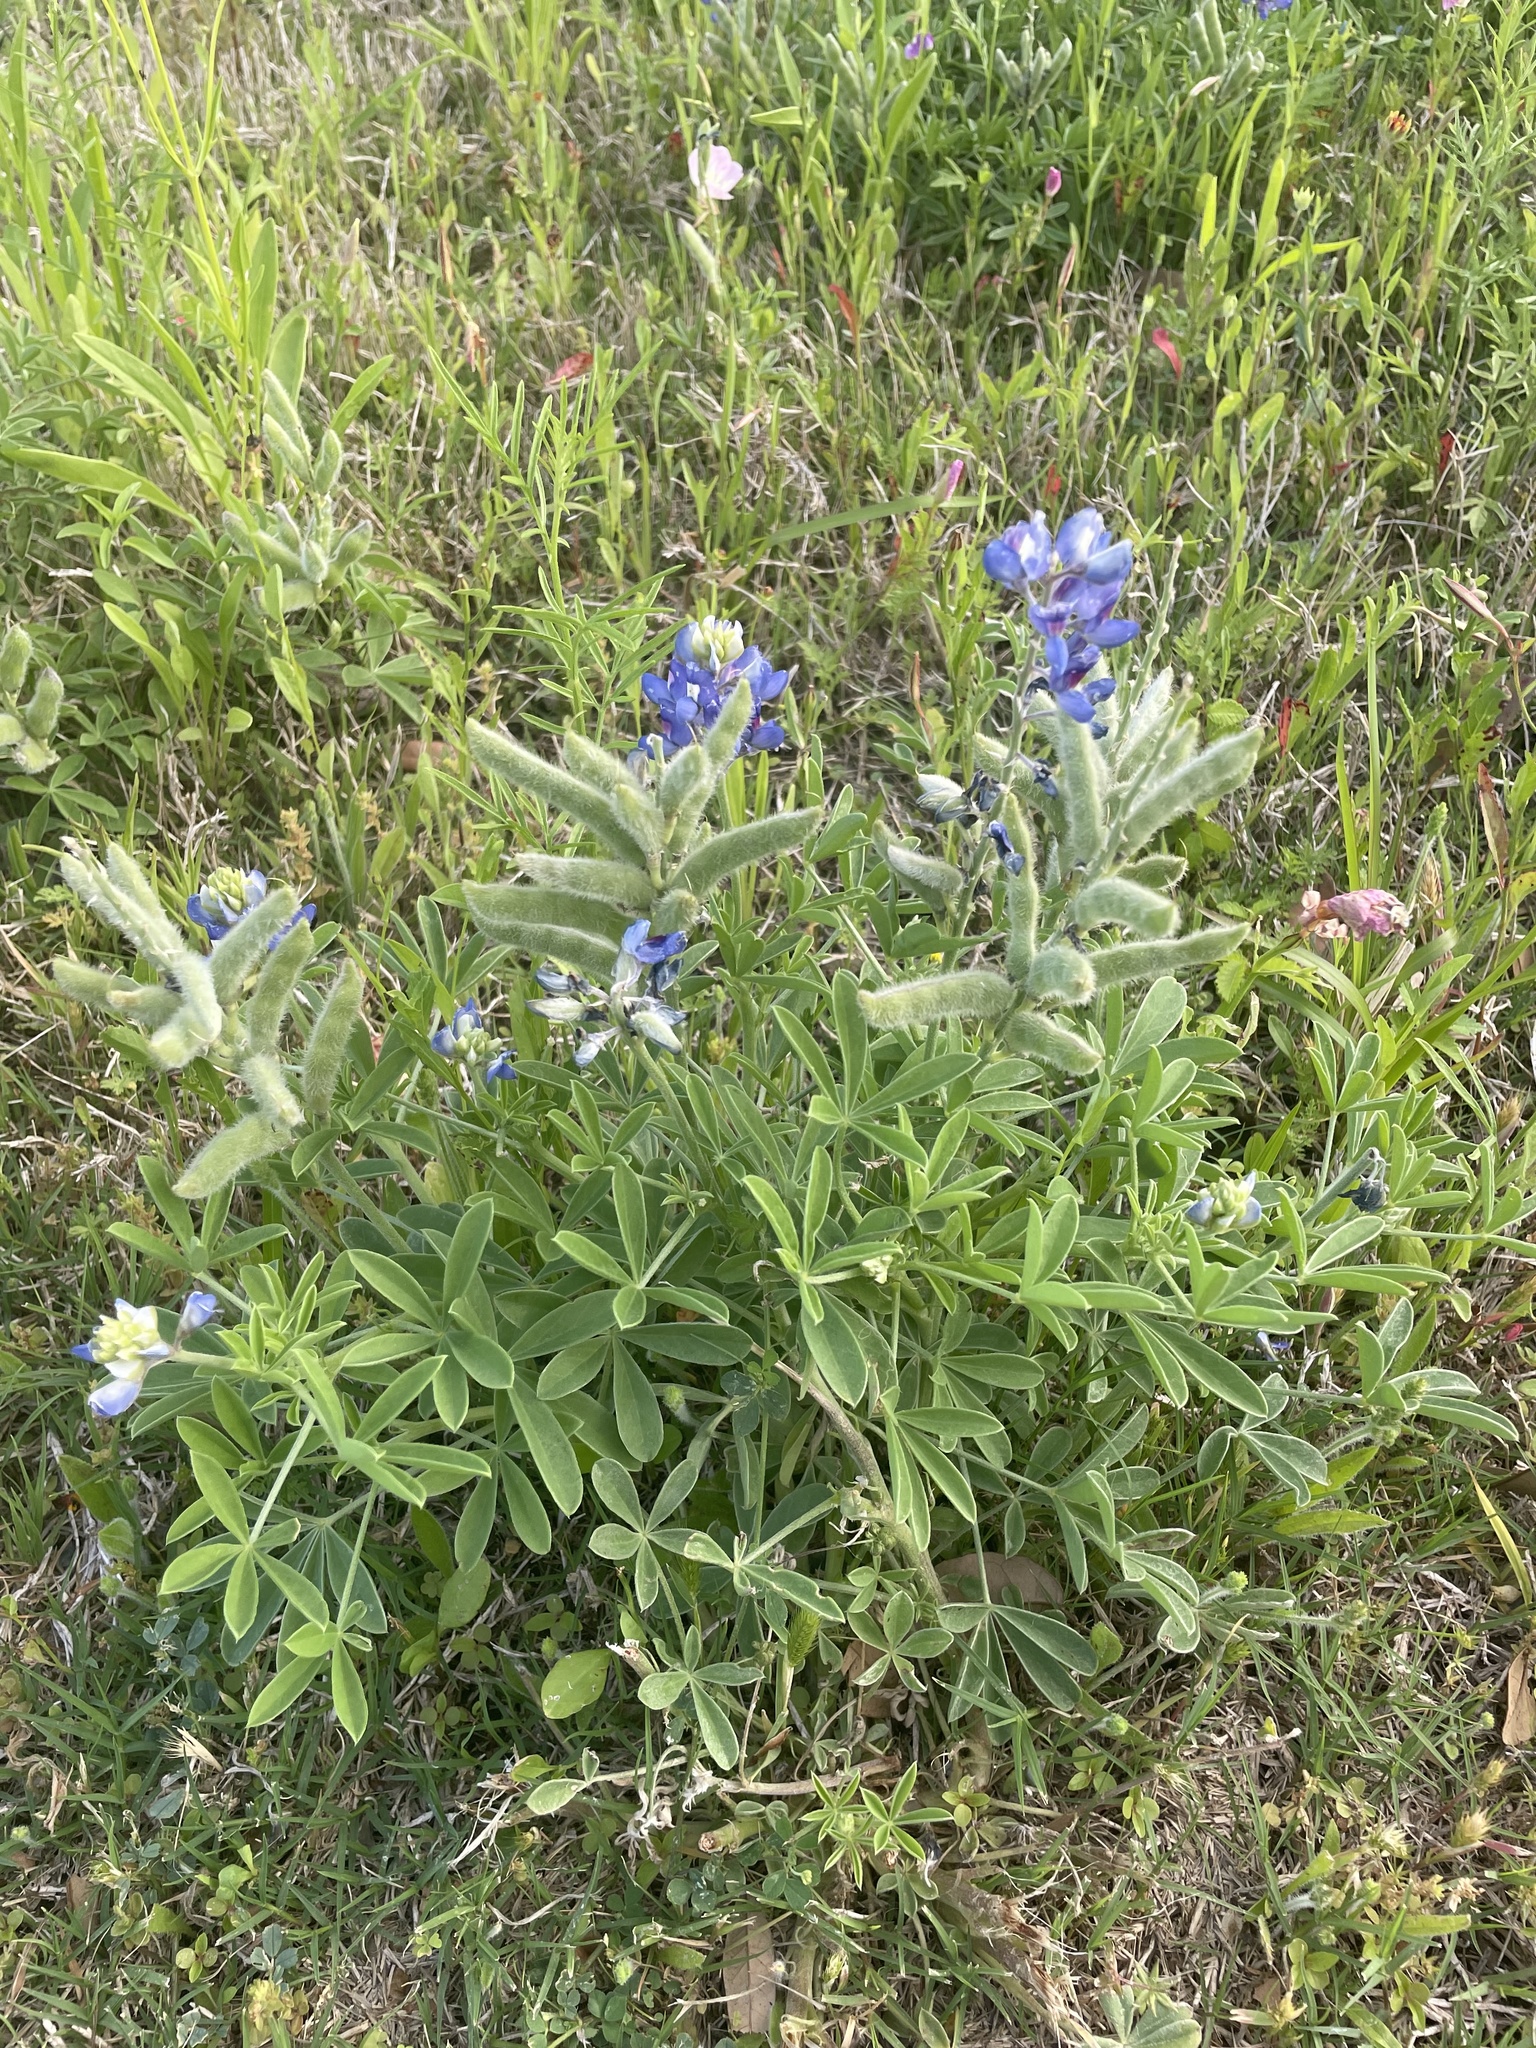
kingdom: Plantae
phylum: Tracheophyta
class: Magnoliopsida
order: Fabales
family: Fabaceae
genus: Lupinus
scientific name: Lupinus texensis
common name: Texas bluebonnet
